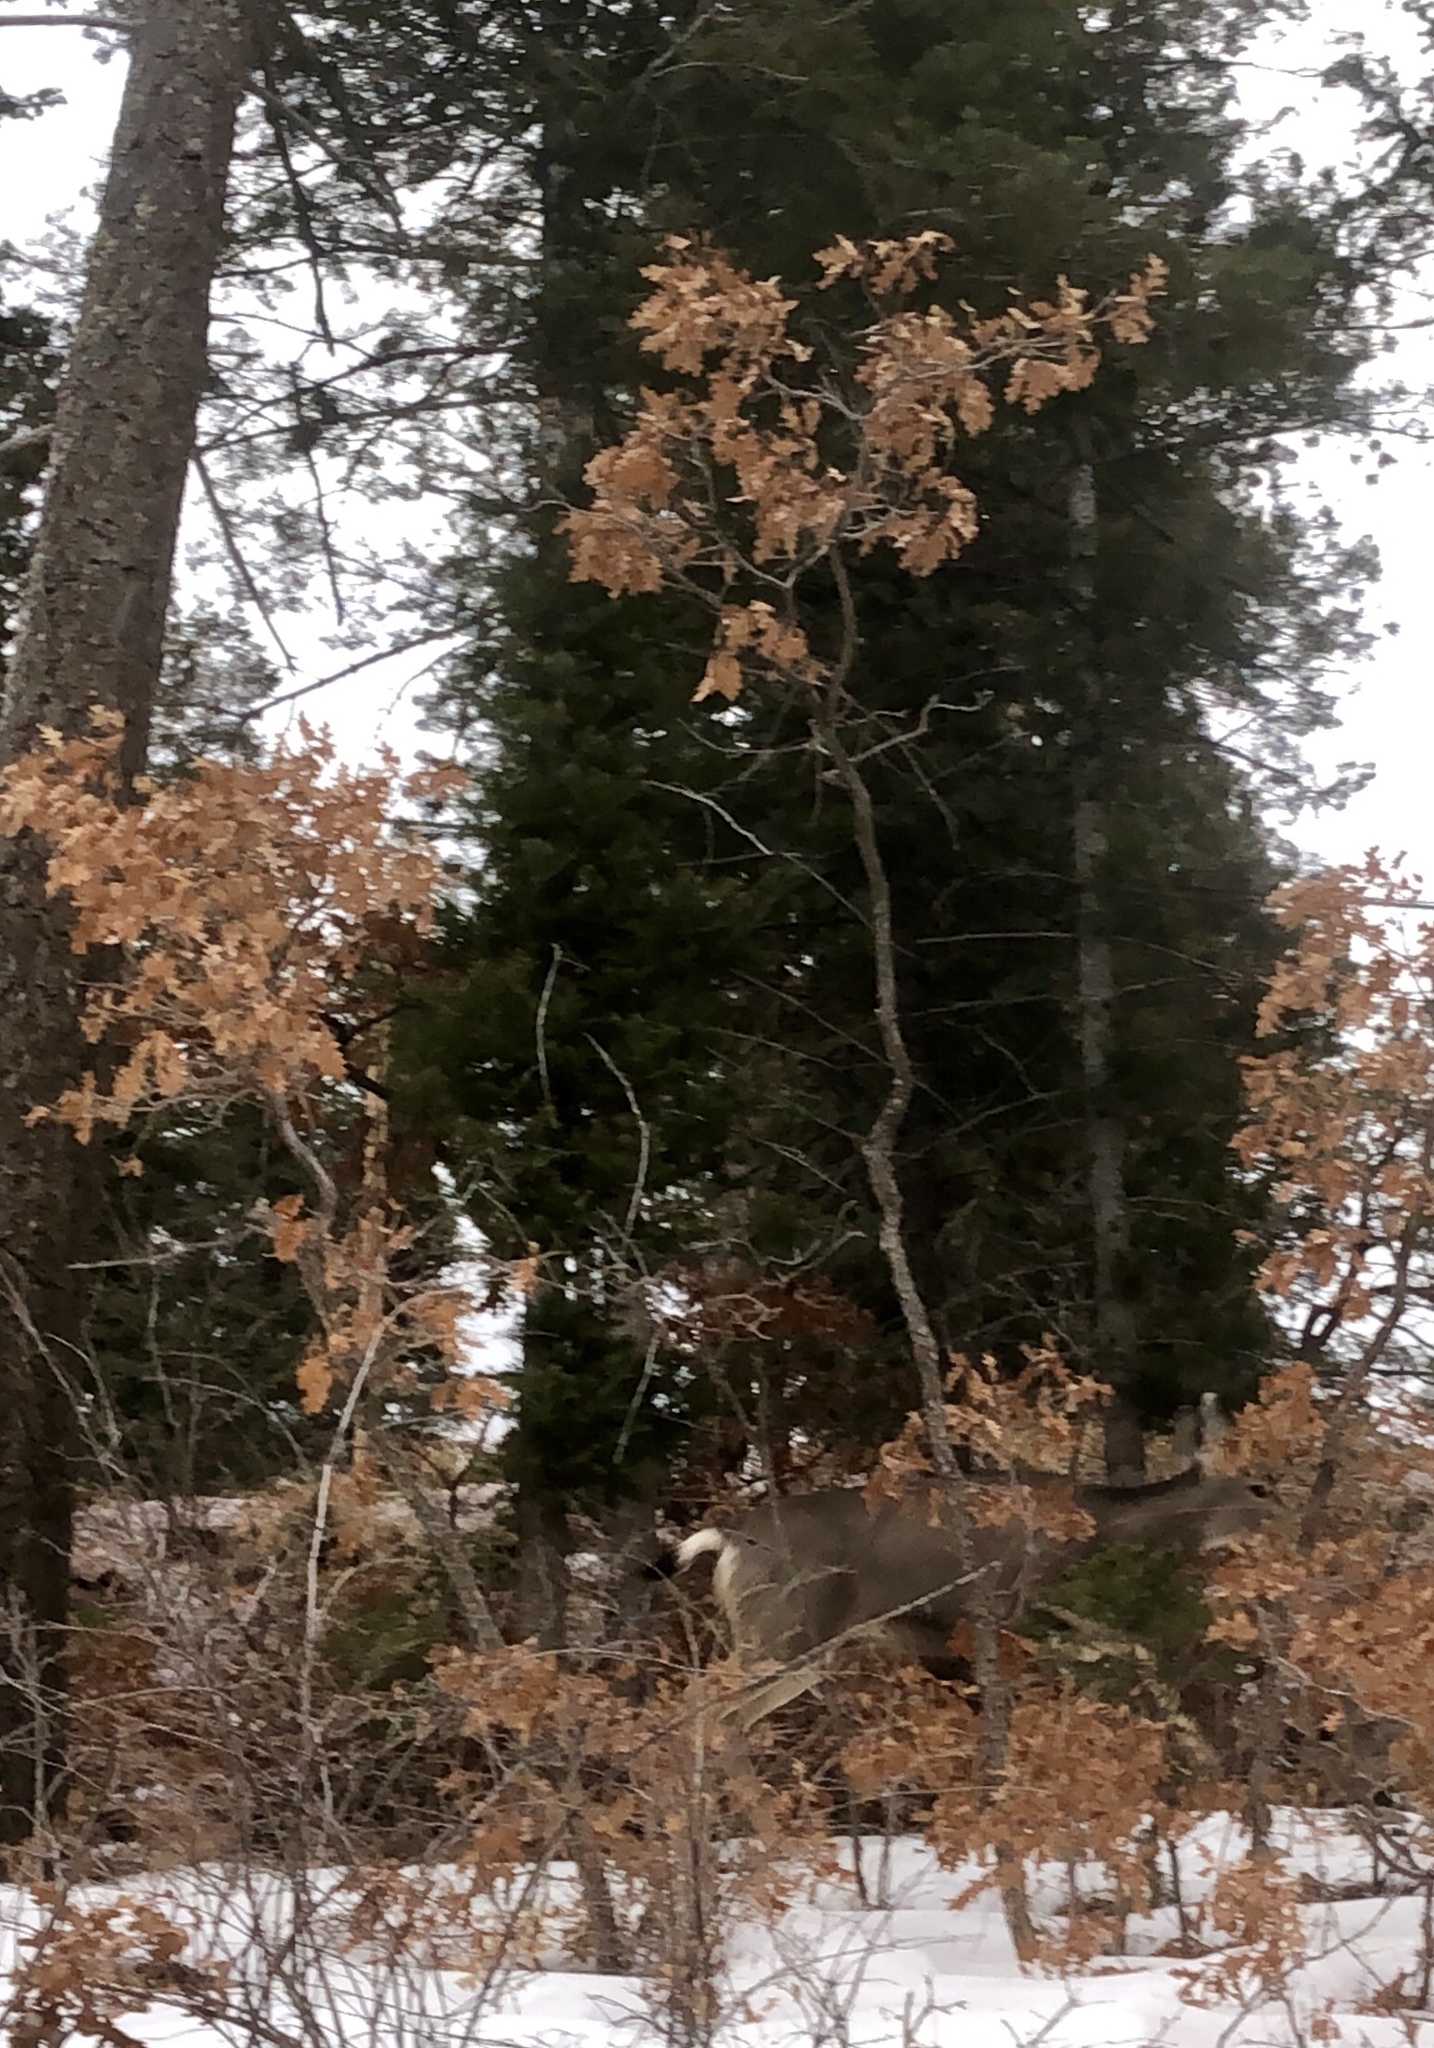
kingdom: Plantae
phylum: Tracheophyta
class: Magnoliopsida
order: Fagales
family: Fagaceae
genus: Quercus
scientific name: Quercus gambelii
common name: Gambel oak
